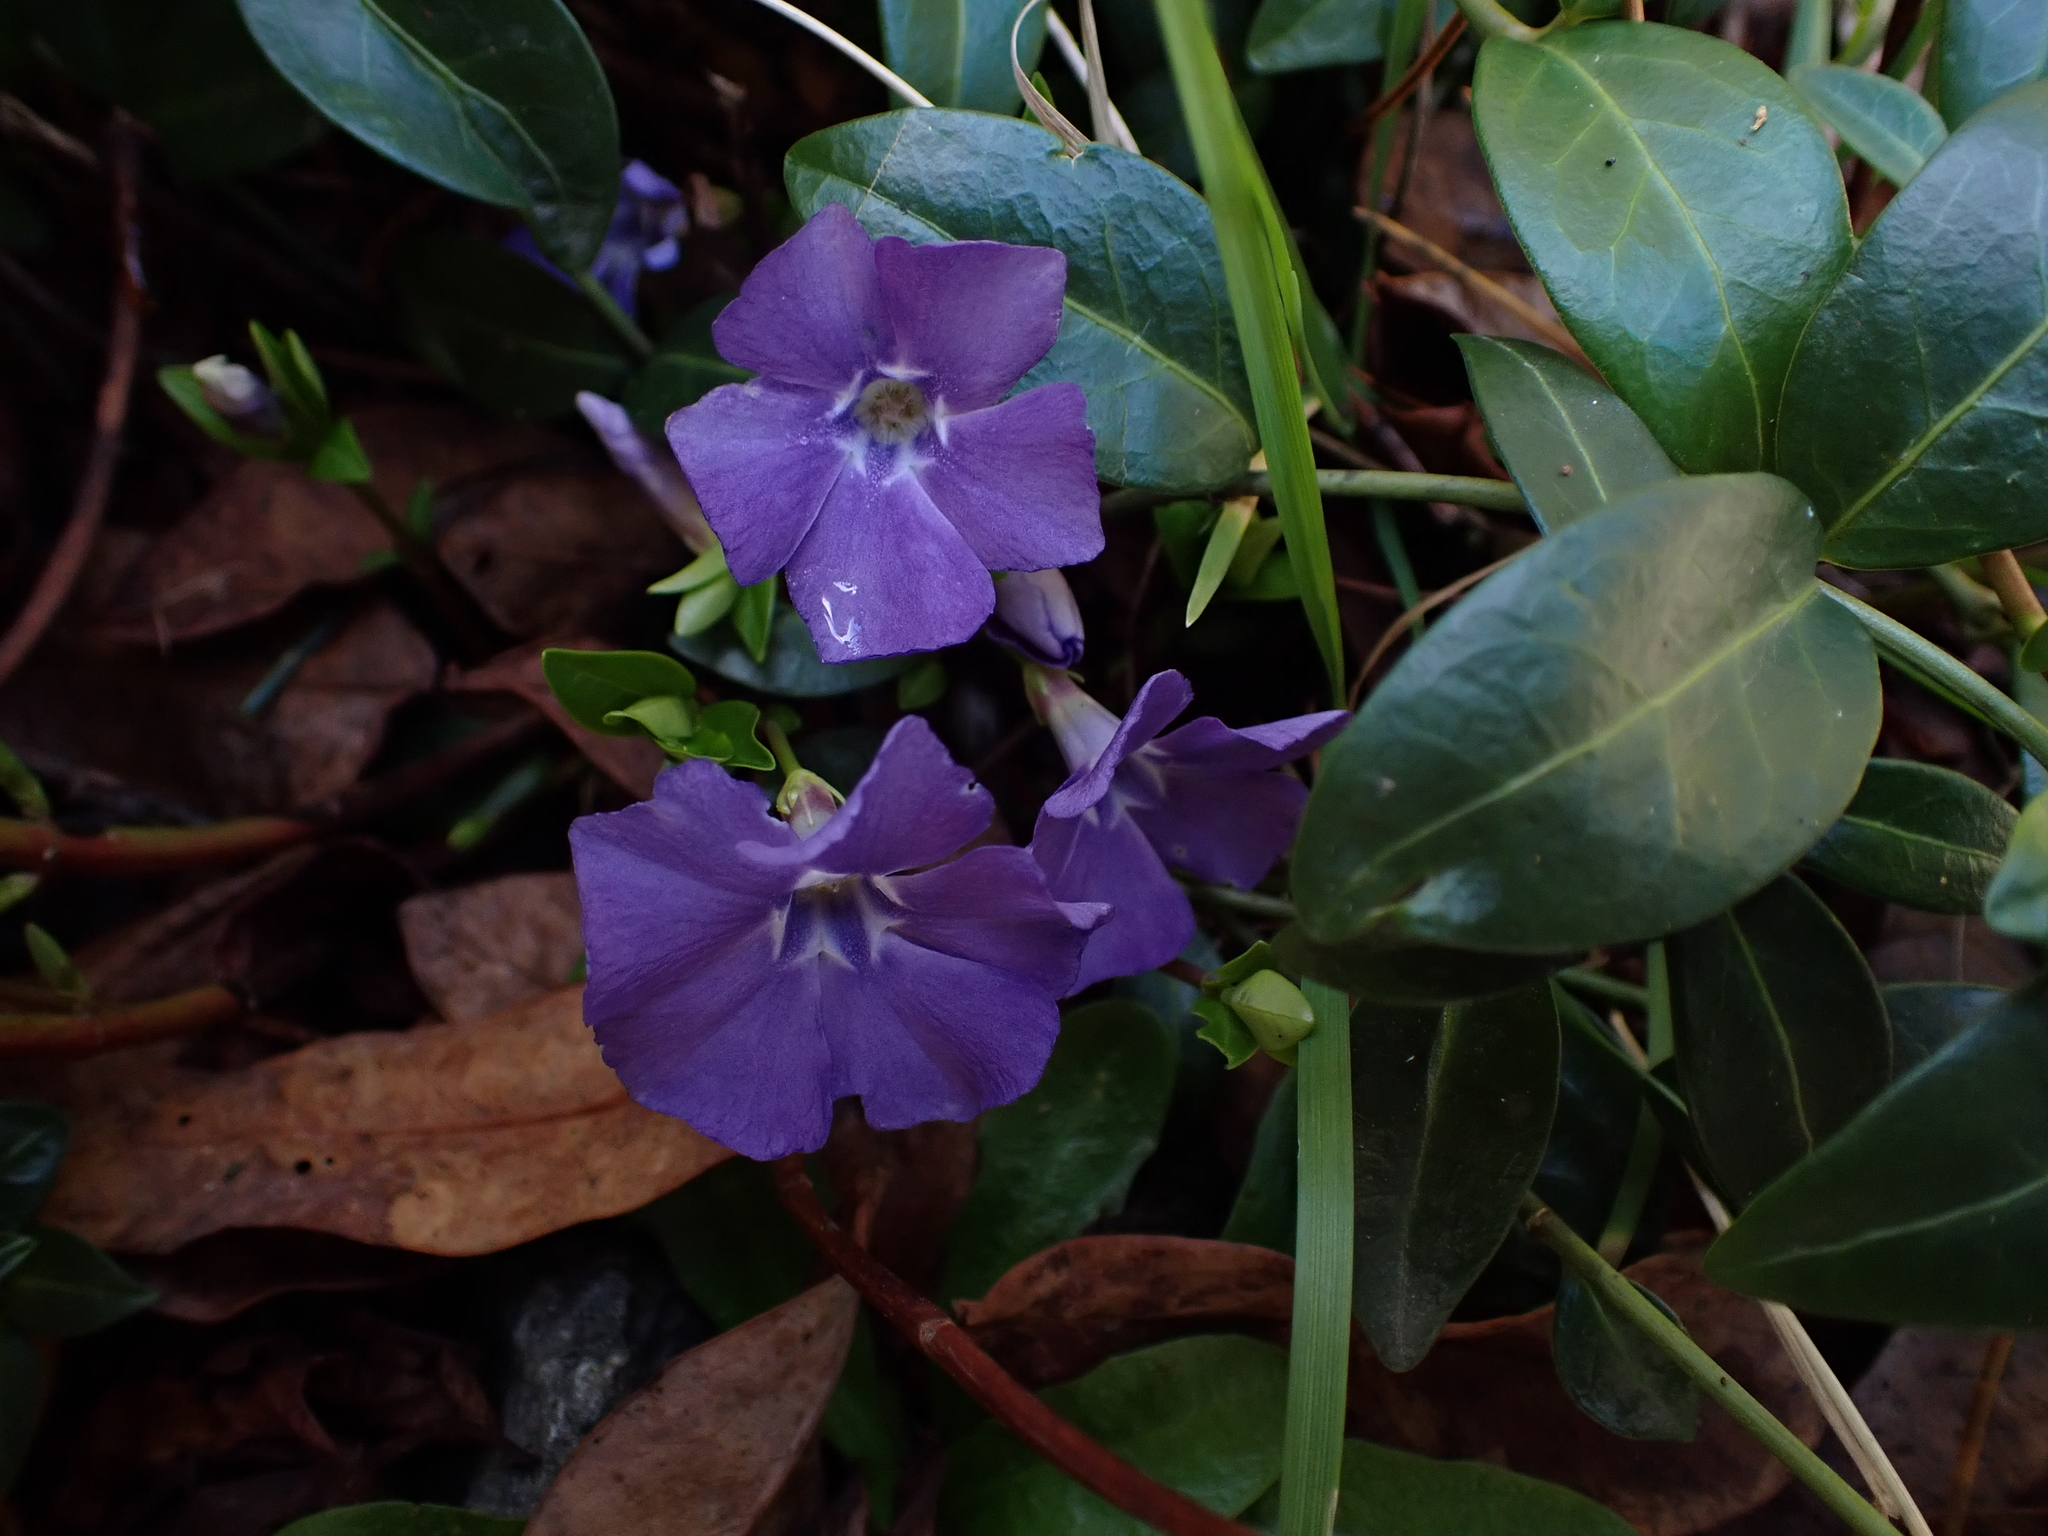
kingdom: Plantae
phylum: Tracheophyta
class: Magnoliopsida
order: Gentianales
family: Apocynaceae
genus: Vinca
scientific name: Vinca minor
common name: Lesser periwinkle
